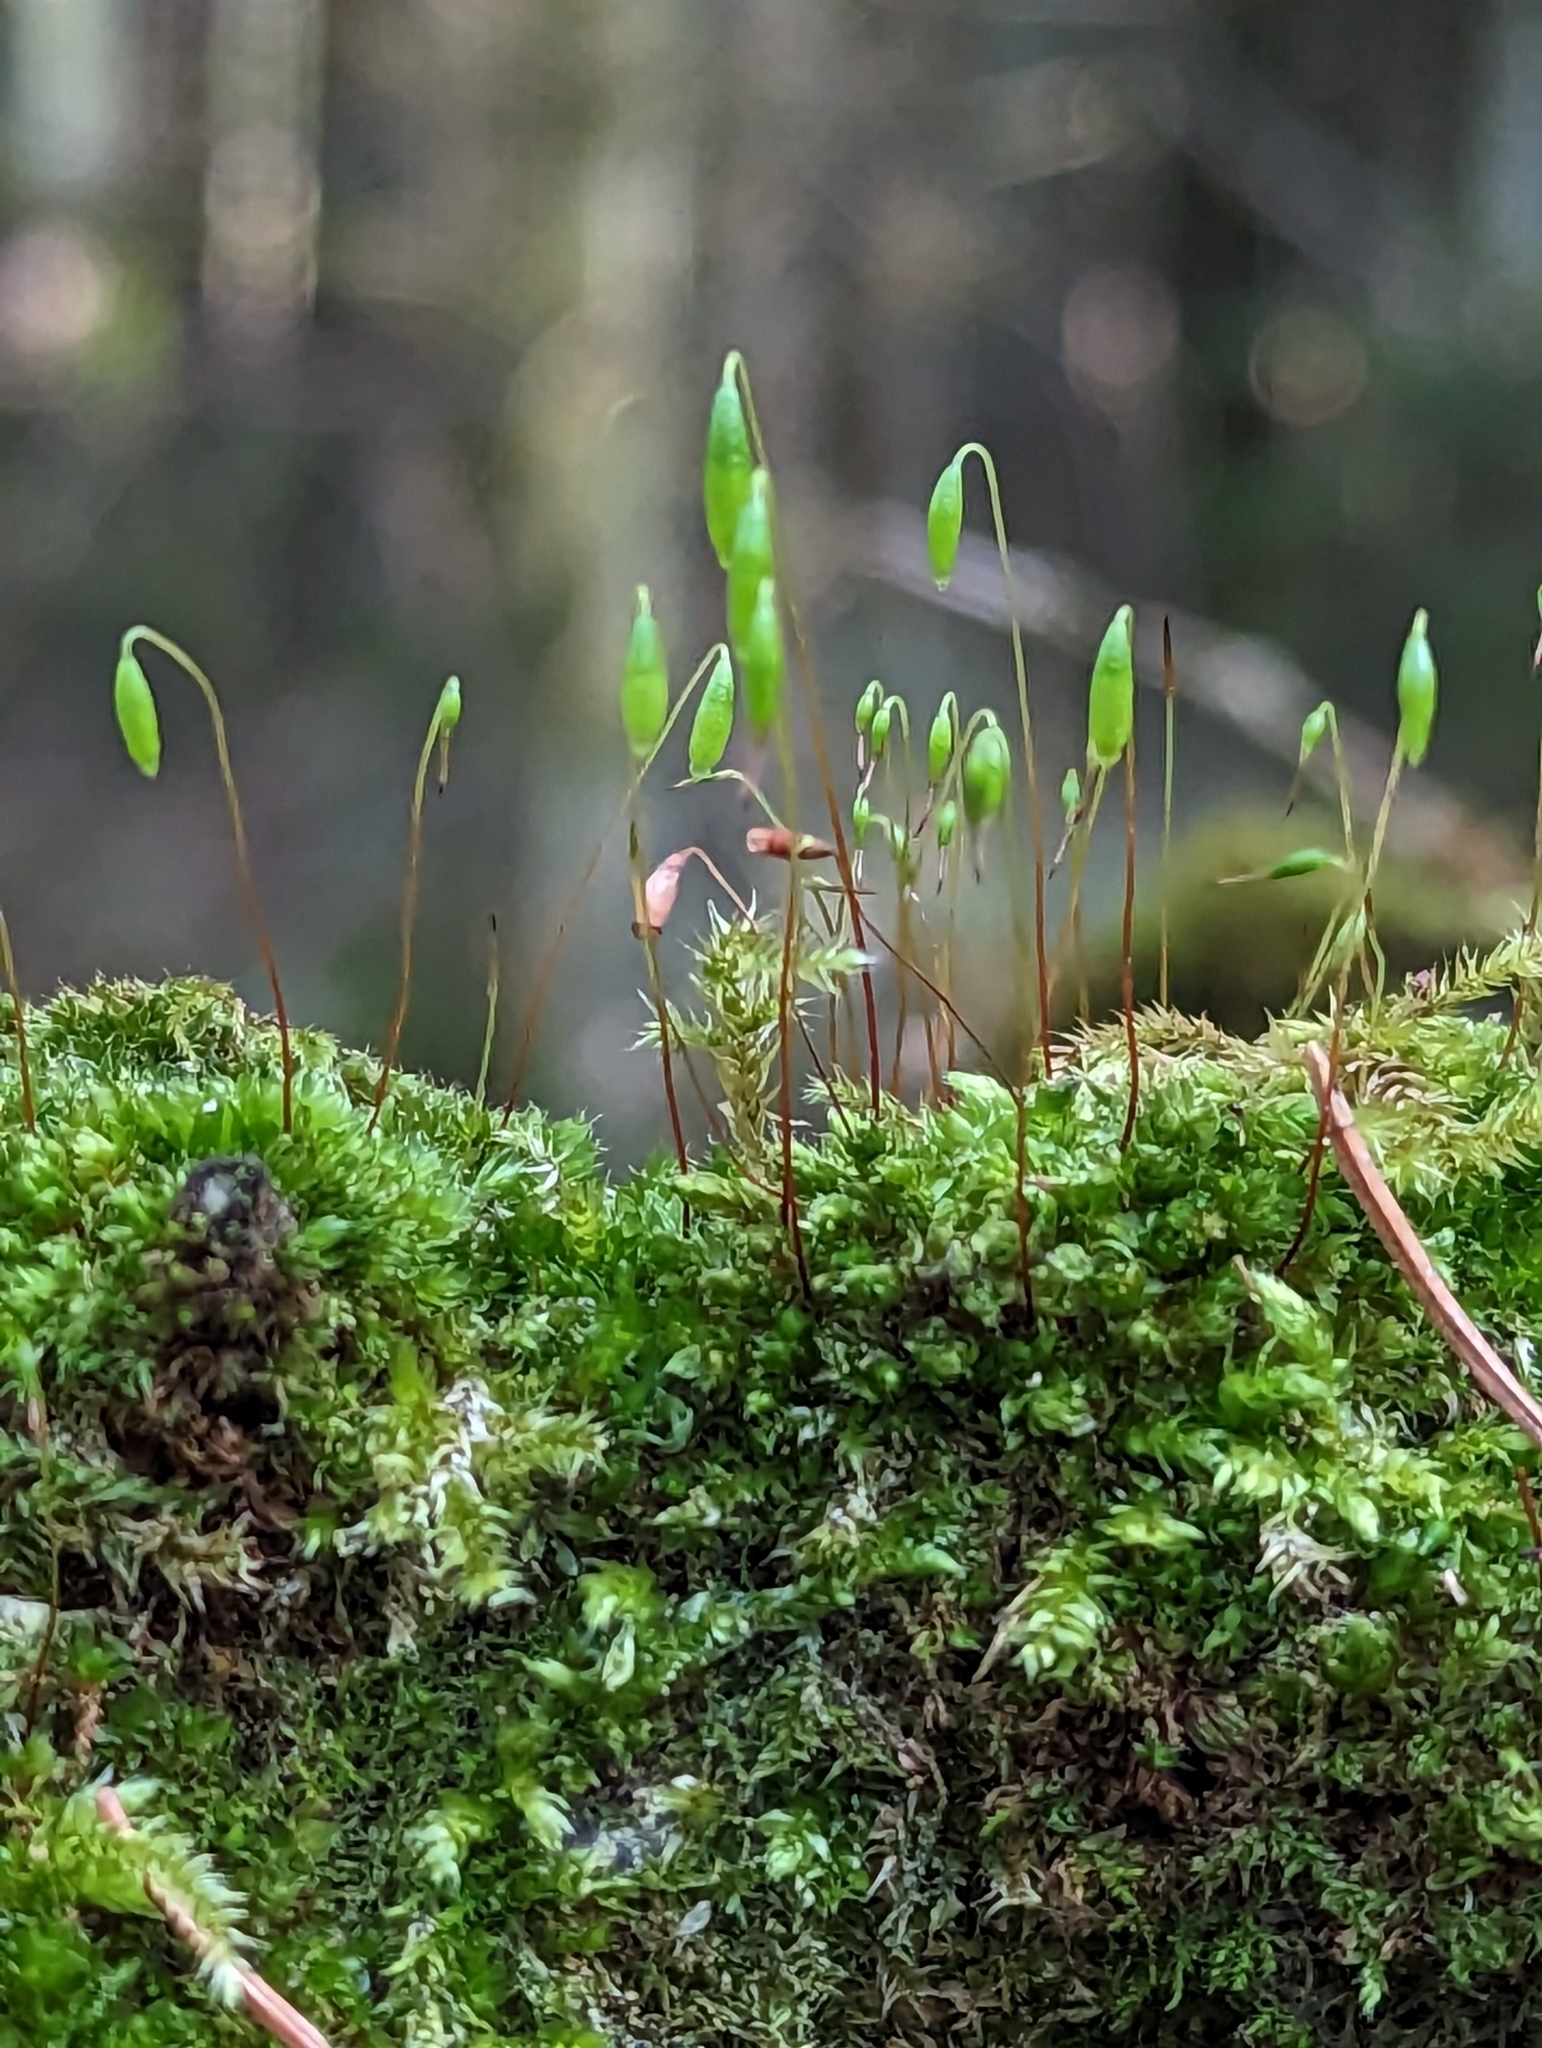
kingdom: Plantae
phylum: Bryophyta
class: Bryopsida
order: Bryales
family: Bryaceae
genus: Rosulabryum
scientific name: Rosulabryum capillare
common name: Capillary thread-moss
